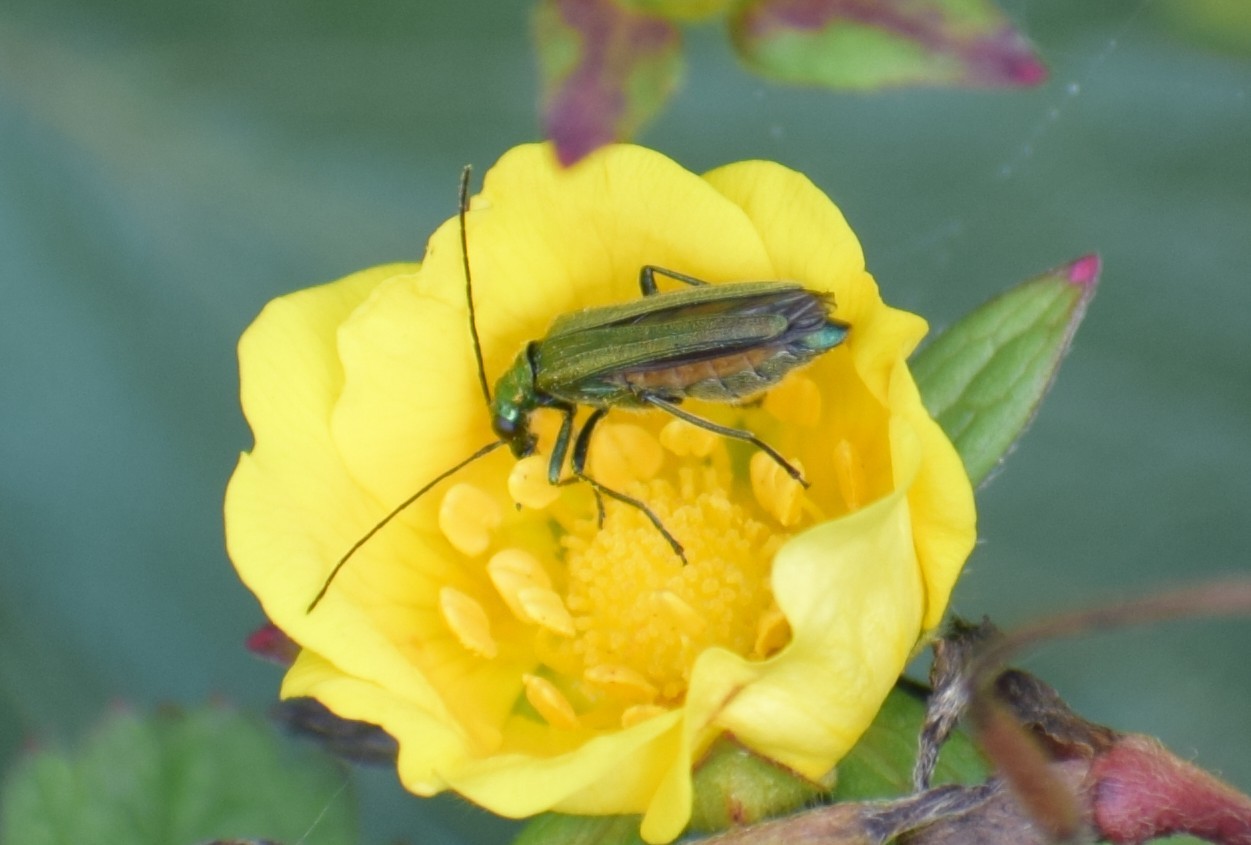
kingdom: Animalia
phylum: Arthropoda
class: Insecta
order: Coleoptera
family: Oedemeridae
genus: Oedemera
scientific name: Oedemera nobilis
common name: Swollen-thighed beetle
